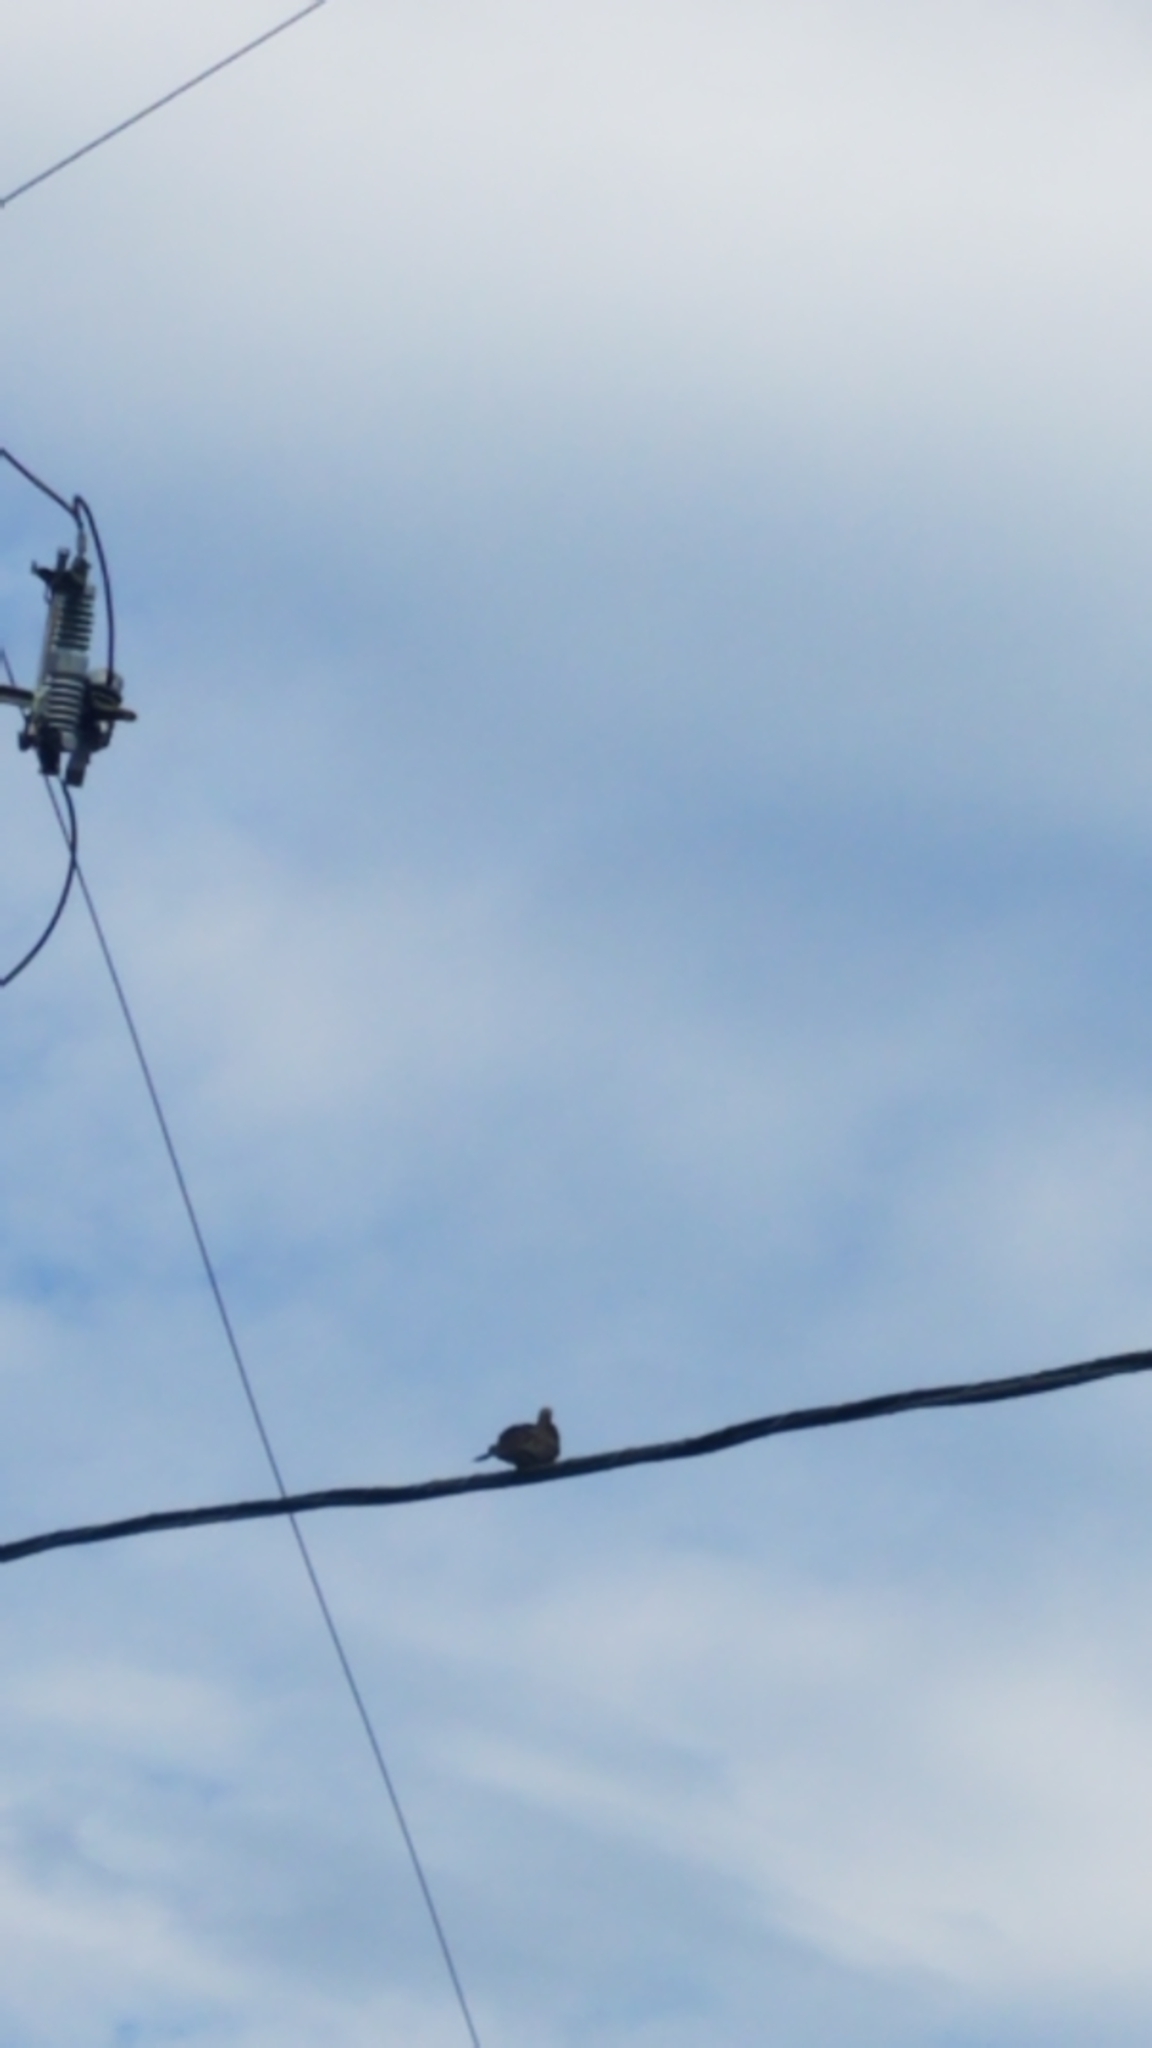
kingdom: Animalia
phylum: Chordata
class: Aves
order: Columbiformes
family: Columbidae
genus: Zenaida
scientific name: Zenaida macroura
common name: Mourning dove
